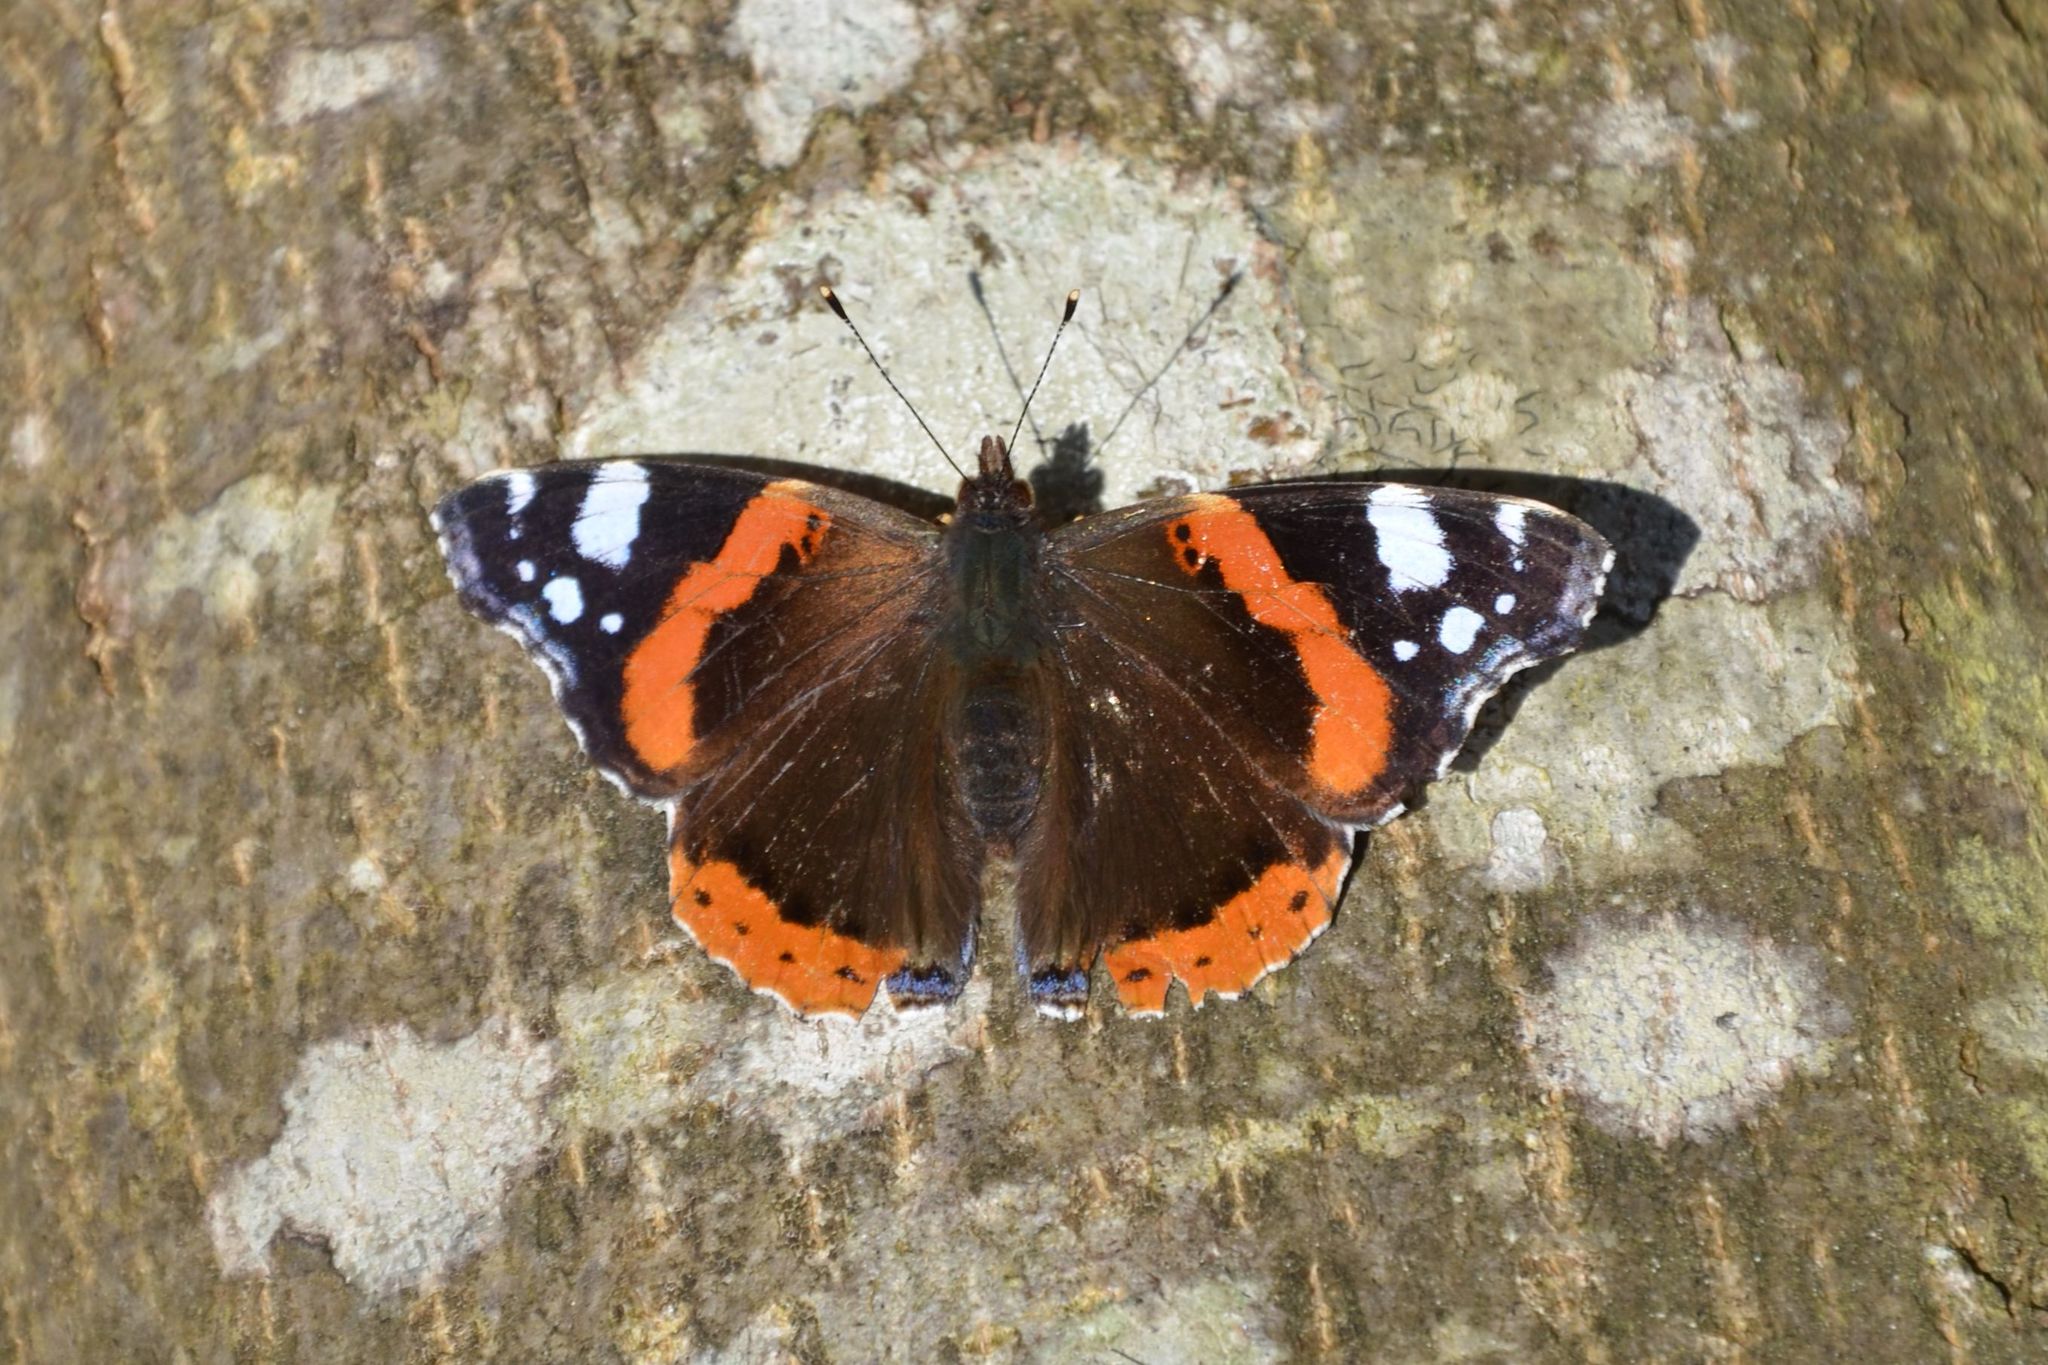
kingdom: Animalia
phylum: Arthropoda
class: Insecta
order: Lepidoptera
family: Nymphalidae
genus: Vanessa
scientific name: Vanessa atalanta
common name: Red admiral
